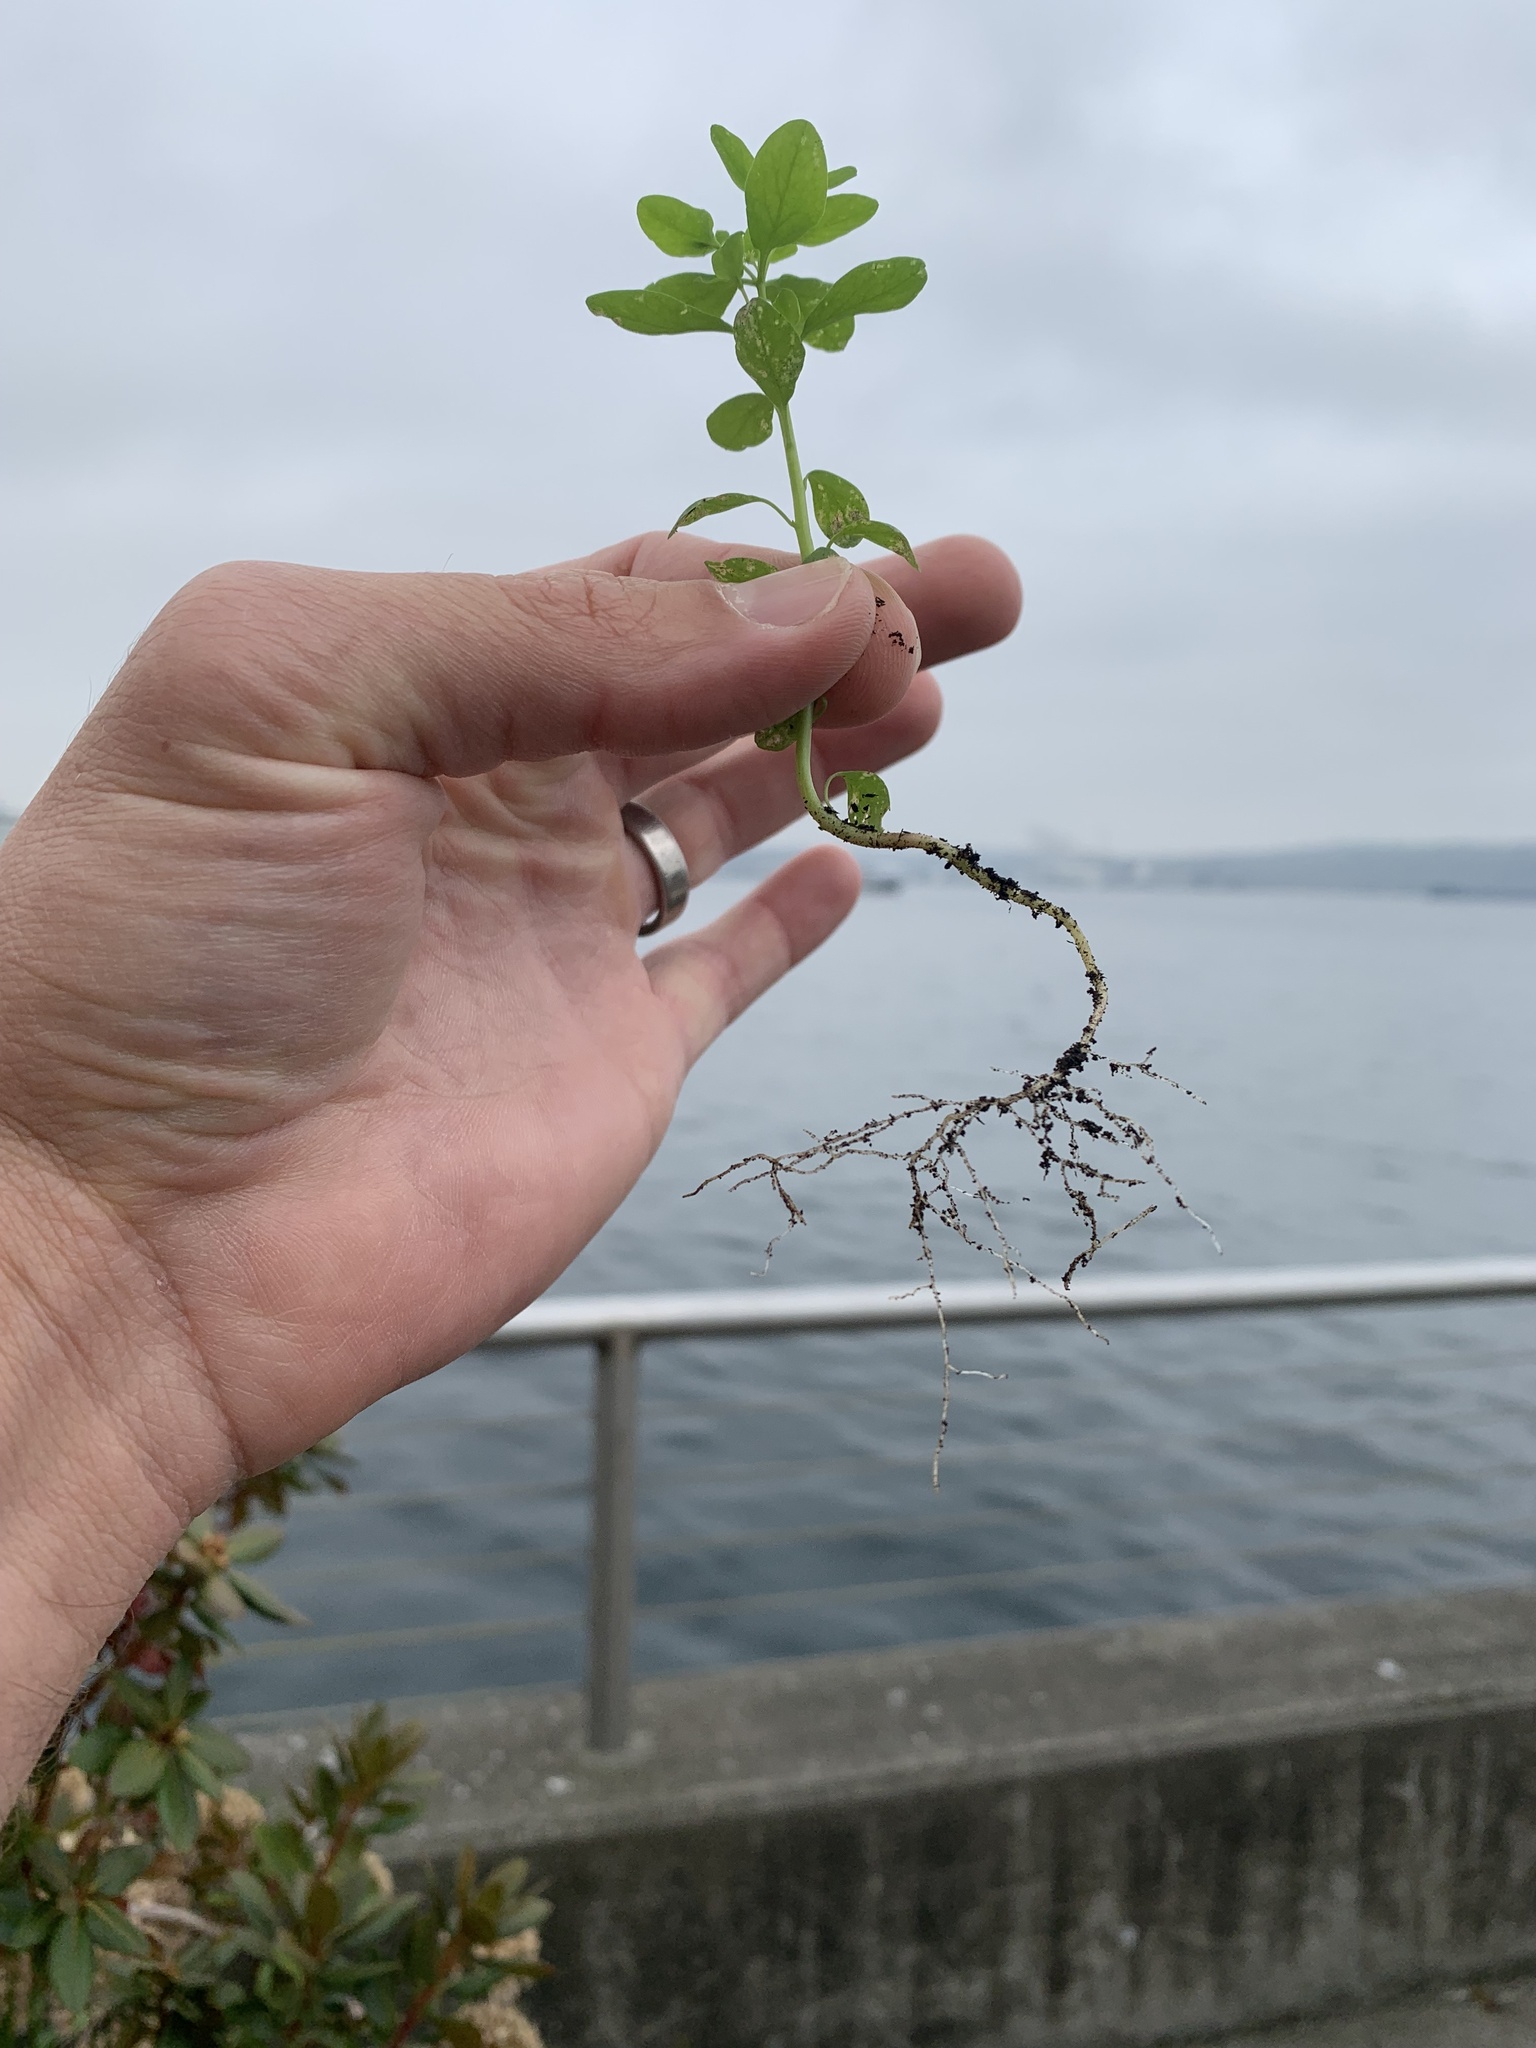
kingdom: Plantae
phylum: Tracheophyta
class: Magnoliopsida
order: Malpighiales
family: Euphorbiaceae
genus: Euphorbia
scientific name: Euphorbia peplus
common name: Petty spurge
